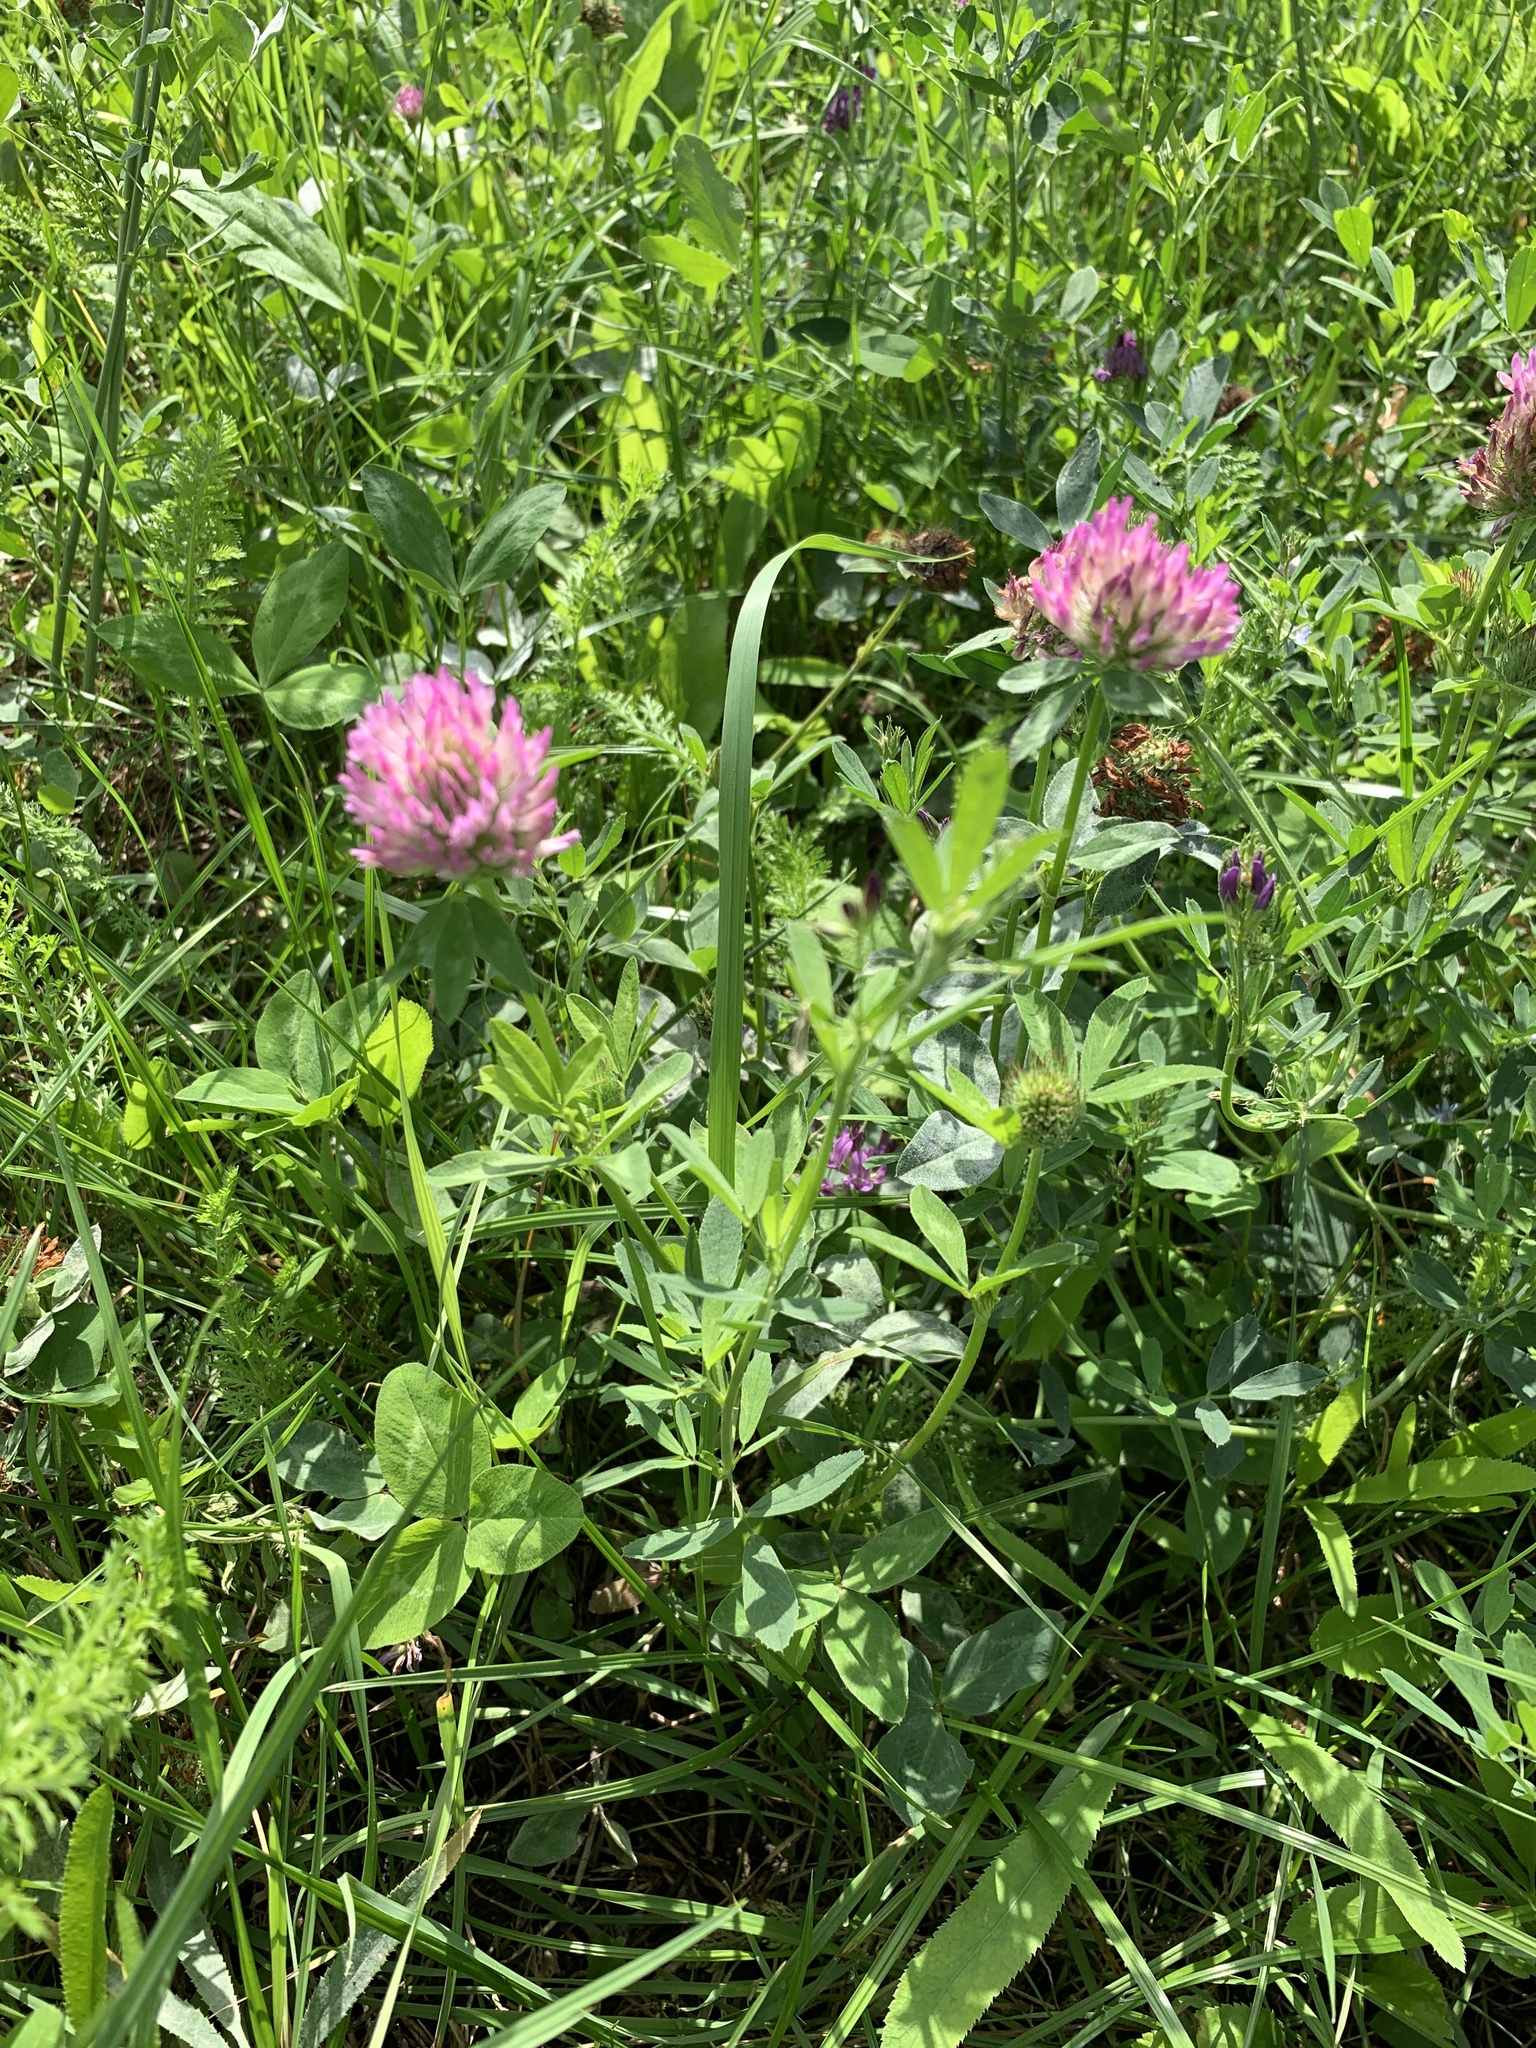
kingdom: Plantae
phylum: Tracheophyta
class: Magnoliopsida
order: Fabales
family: Fabaceae
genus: Trifolium
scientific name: Trifolium pratense
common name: Red clover
